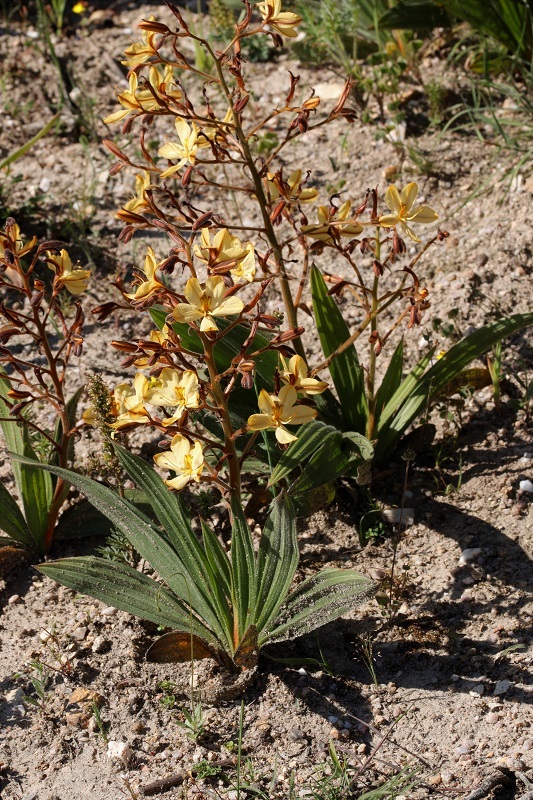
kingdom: Plantae
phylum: Tracheophyta
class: Liliopsida
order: Commelinales
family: Haemodoraceae
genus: Wachendorfia
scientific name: Wachendorfia paniculata
